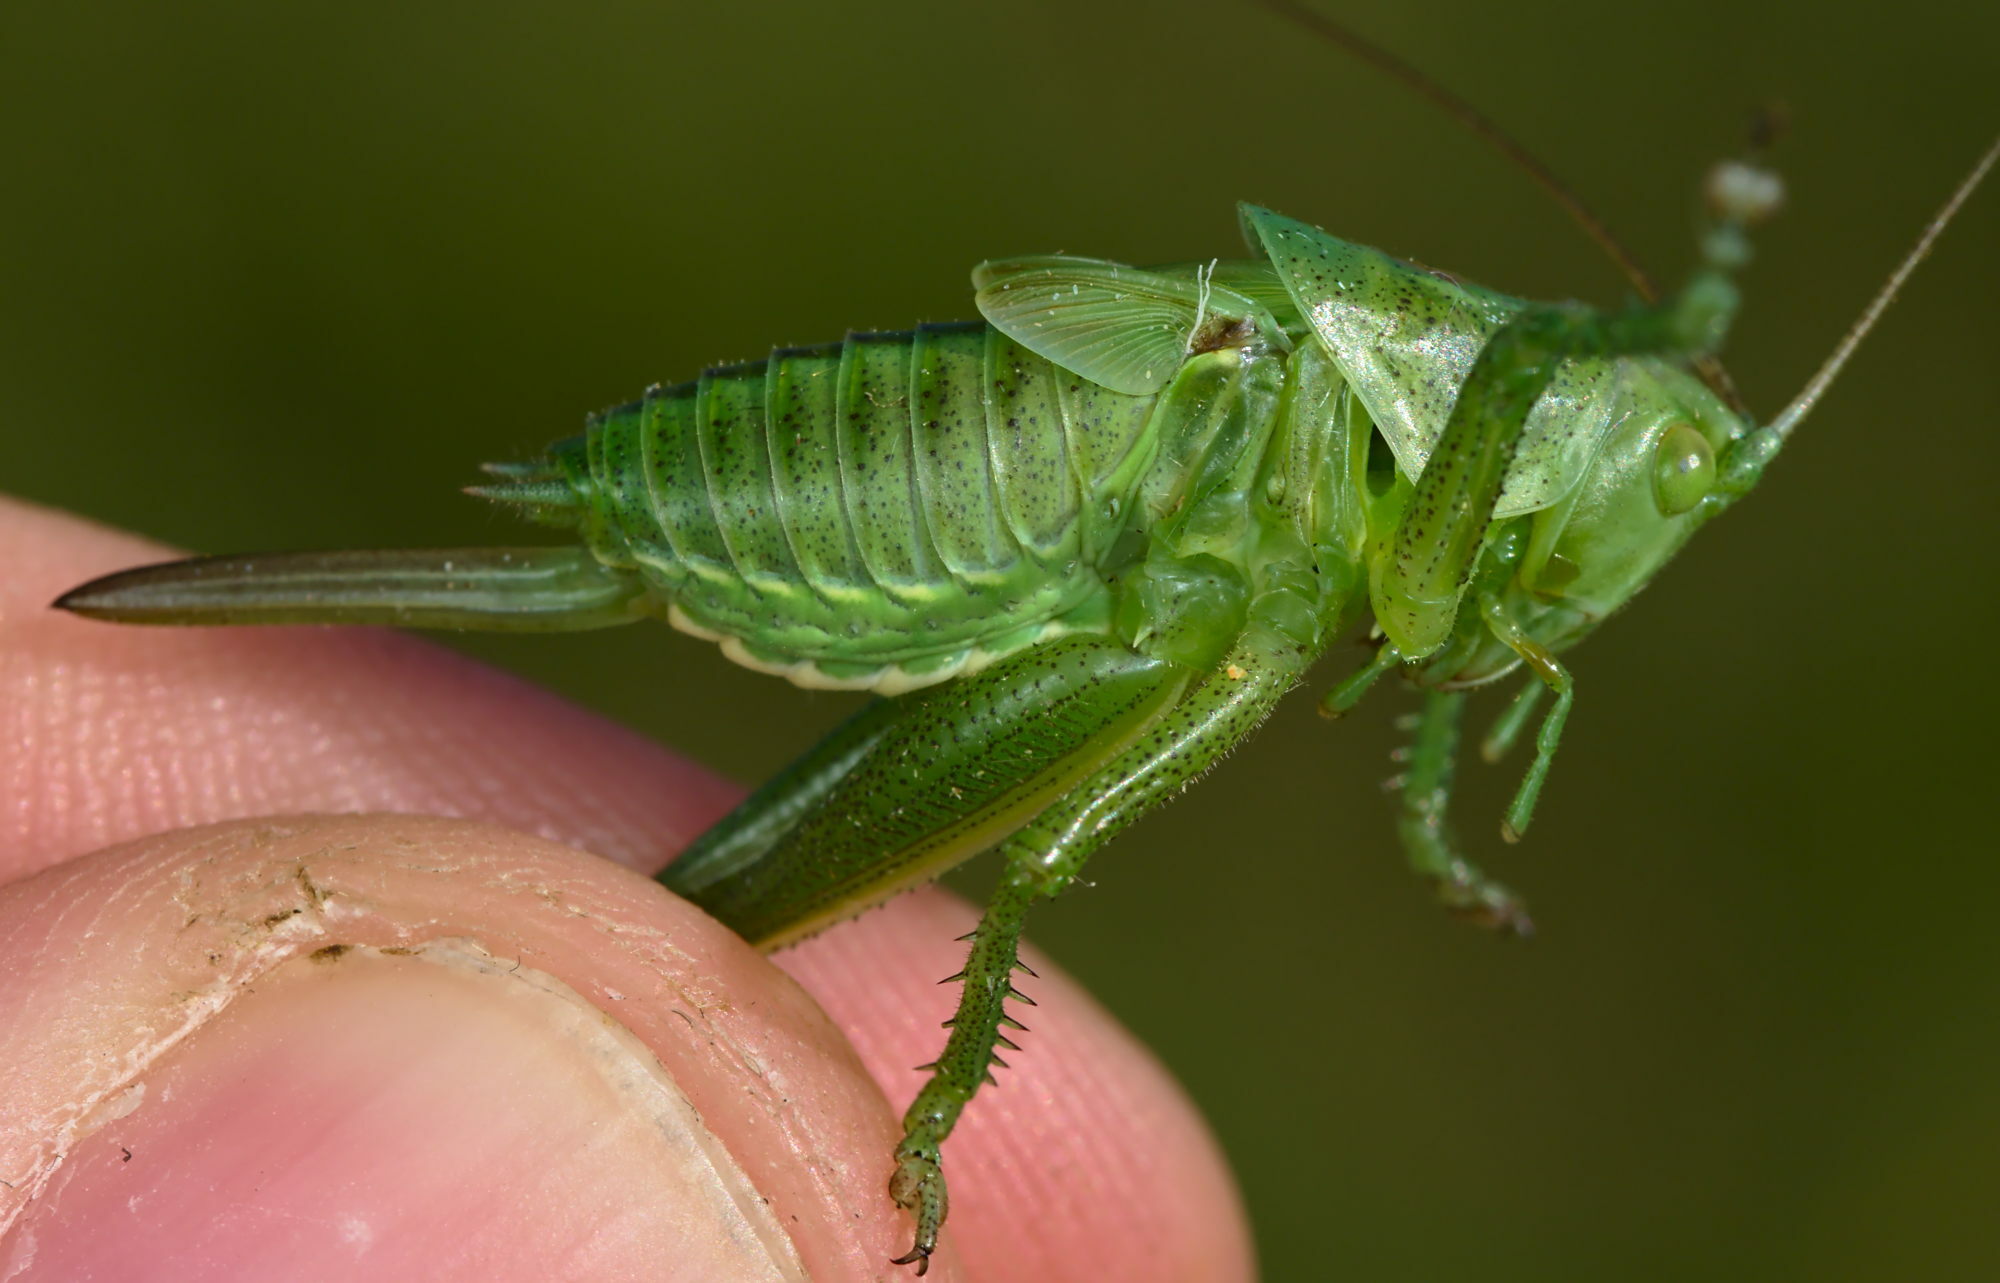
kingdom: Animalia
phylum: Arthropoda
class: Insecta
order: Orthoptera
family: Tettigoniidae
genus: Tettigonia
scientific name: Tettigonia viridissima
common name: Great green bush-cricket
